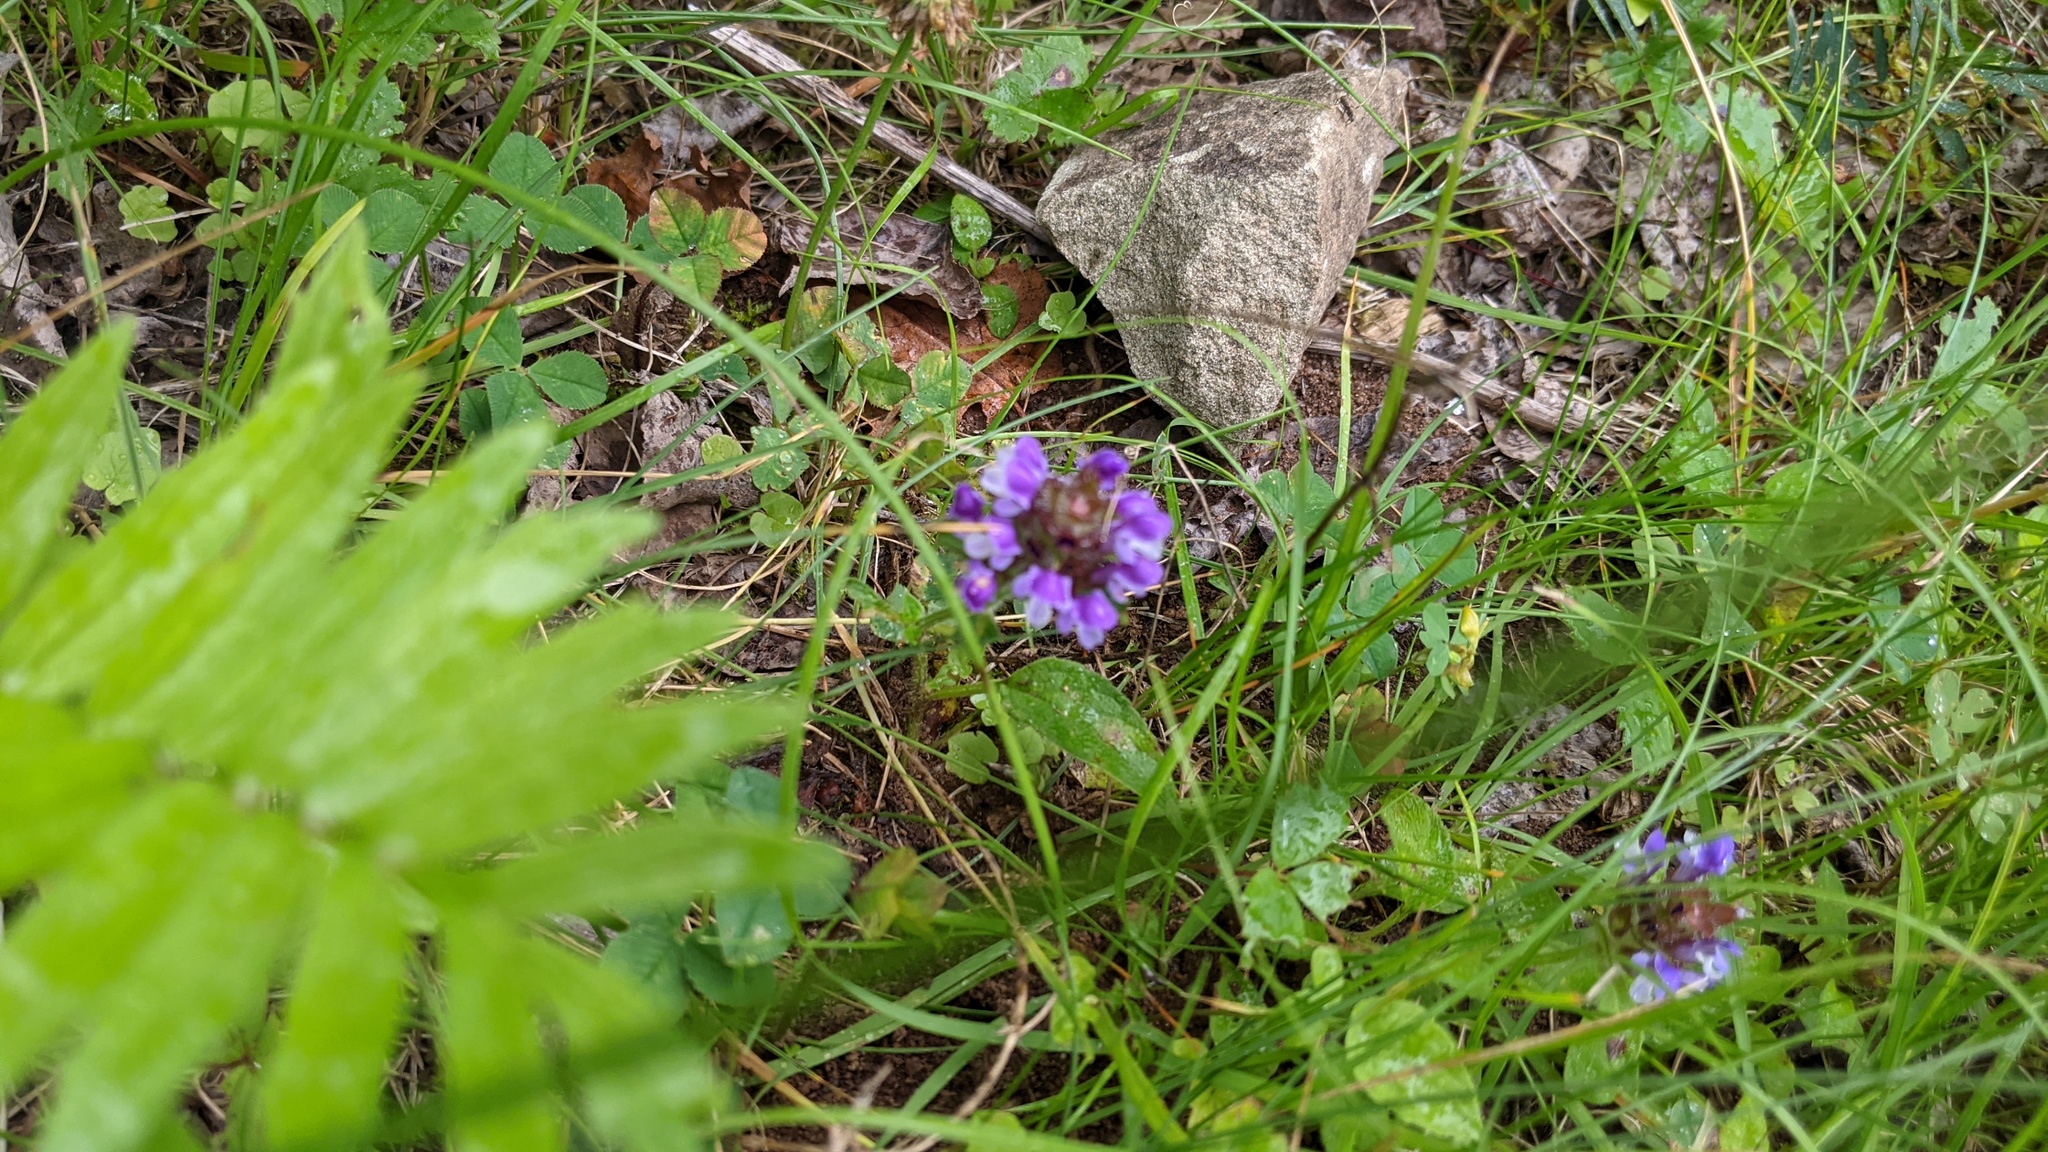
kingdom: Plantae
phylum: Tracheophyta
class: Magnoliopsida
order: Lamiales
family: Lamiaceae
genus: Prunella
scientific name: Prunella vulgaris
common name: Heal-all
